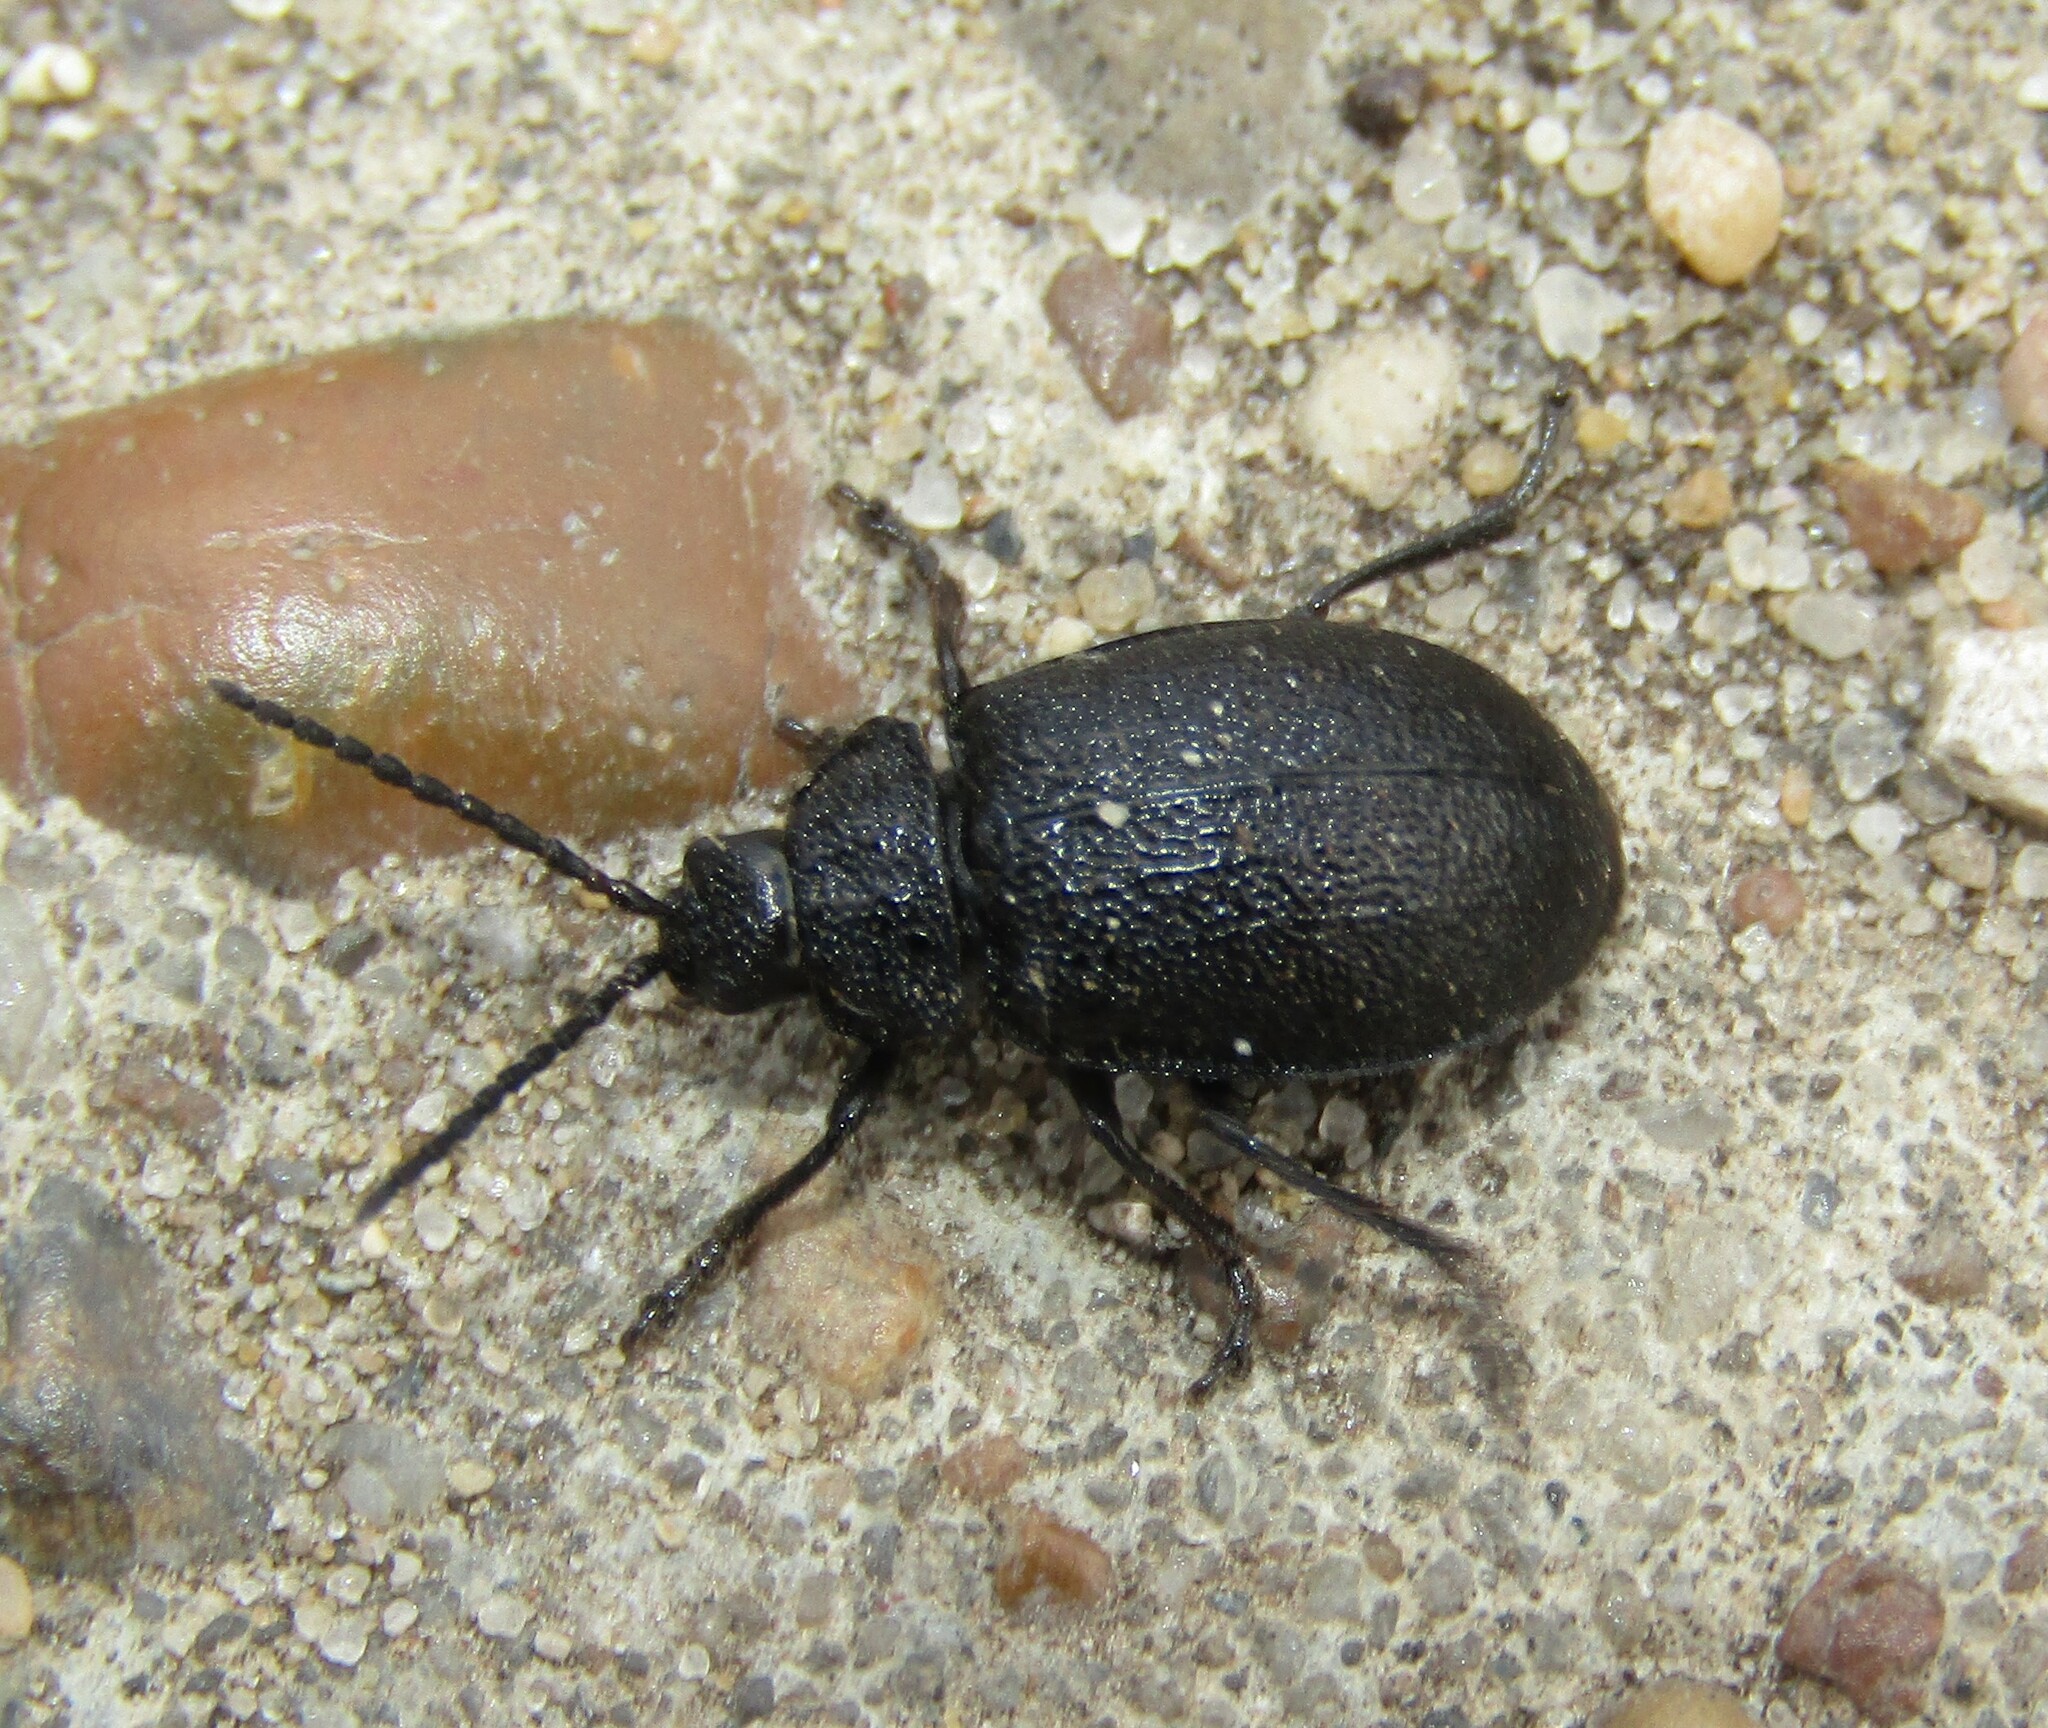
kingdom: Animalia
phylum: Arthropoda
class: Insecta
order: Coleoptera
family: Chrysomelidae
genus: Galeruca
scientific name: Galeruca tanaceti
